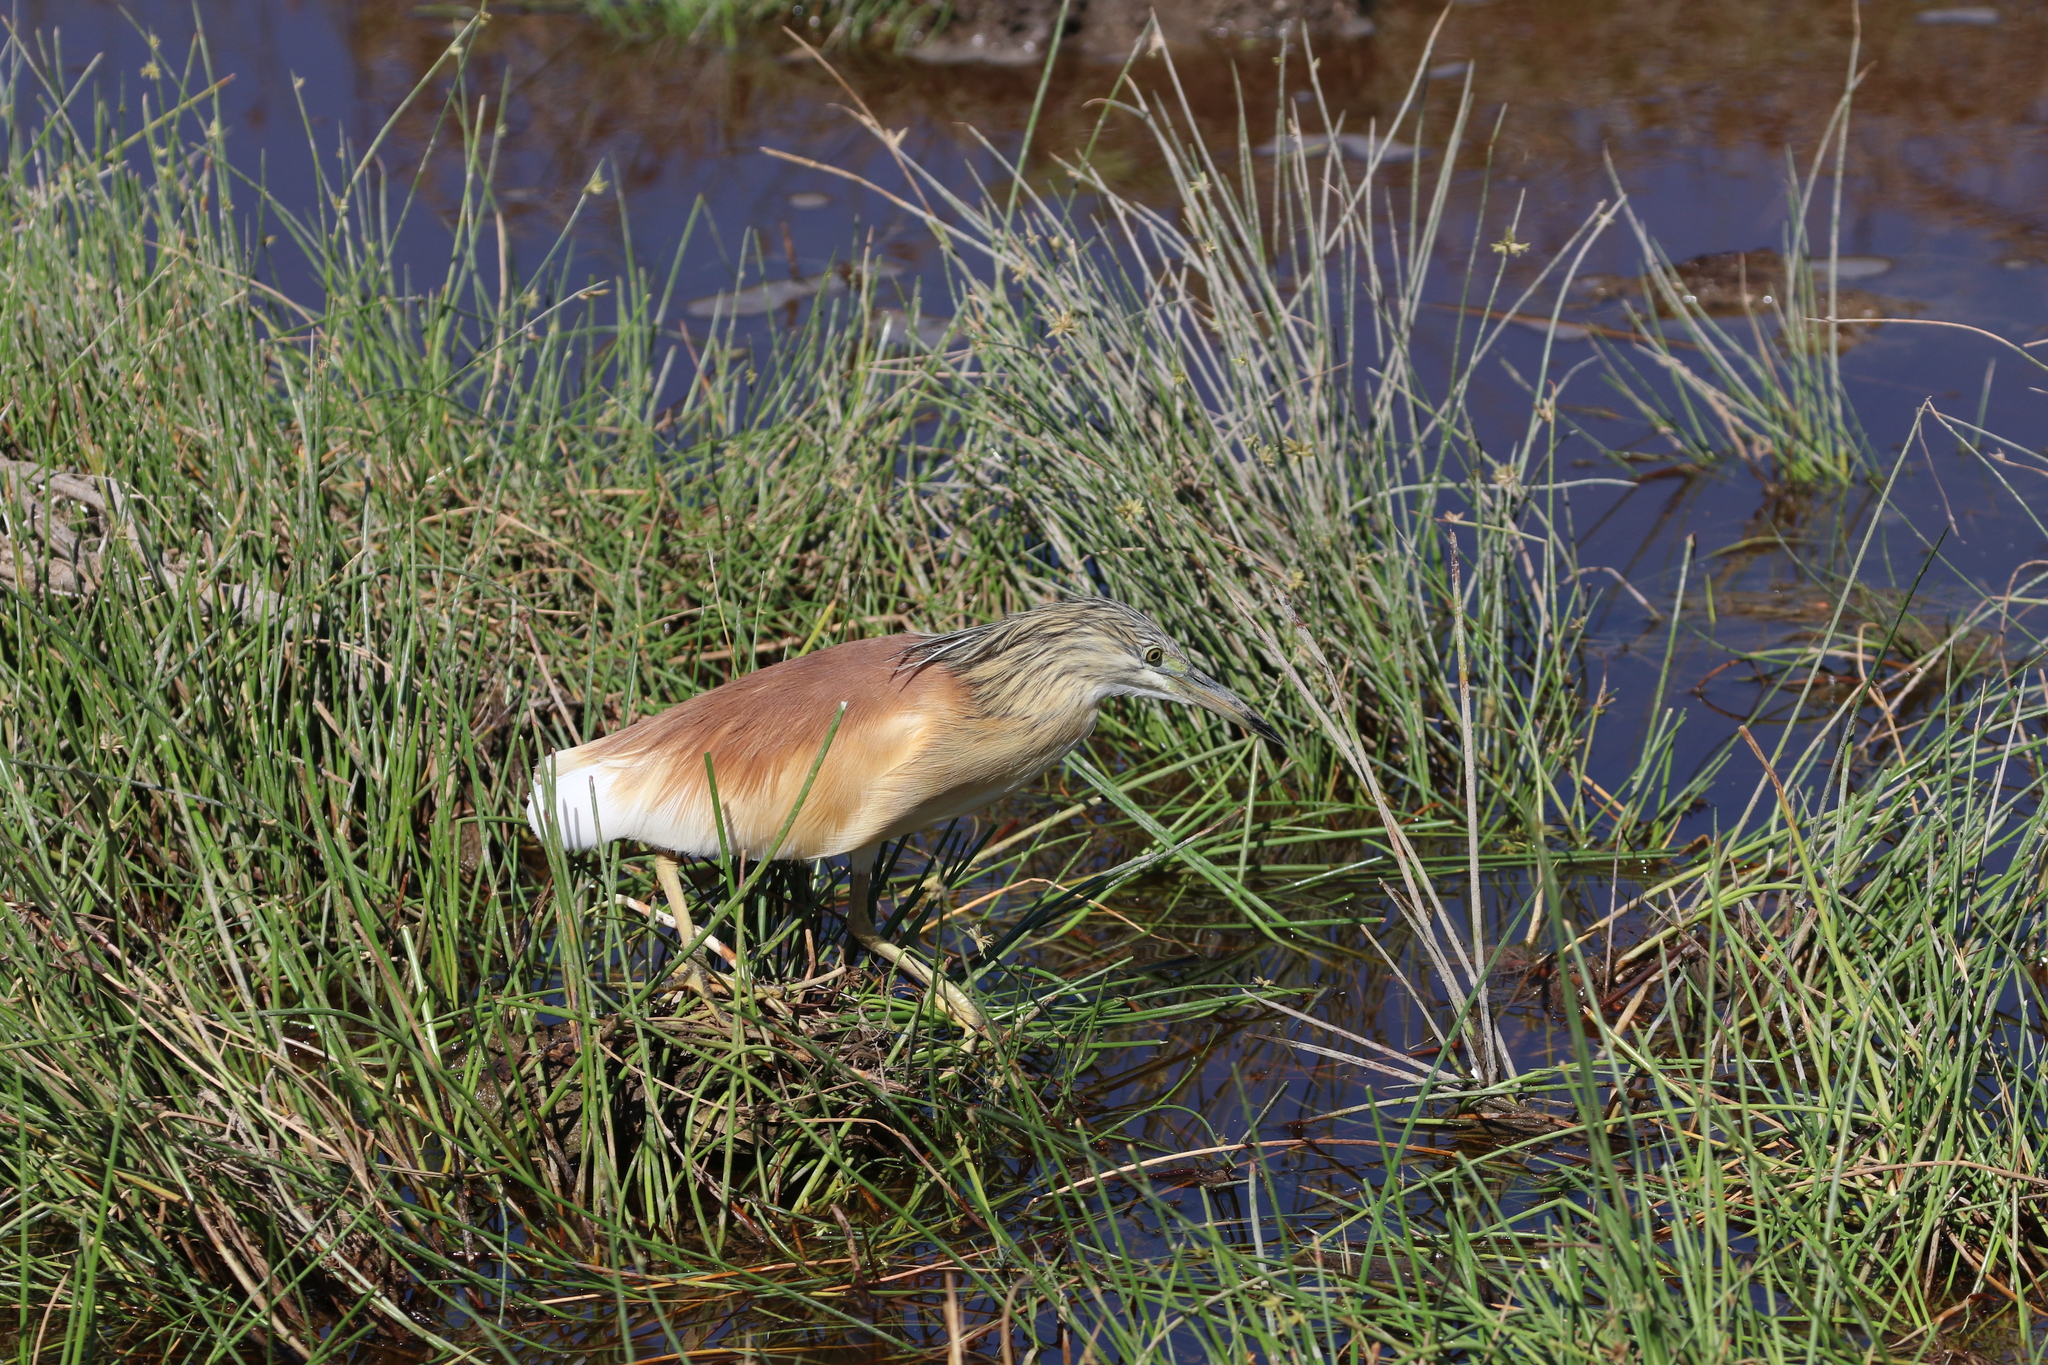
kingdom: Animalia
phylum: Chordata
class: Aves
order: Pelecaniformes
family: Ardeidae
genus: Ardeola
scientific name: Ardeola ralloides
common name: Squacco heron
